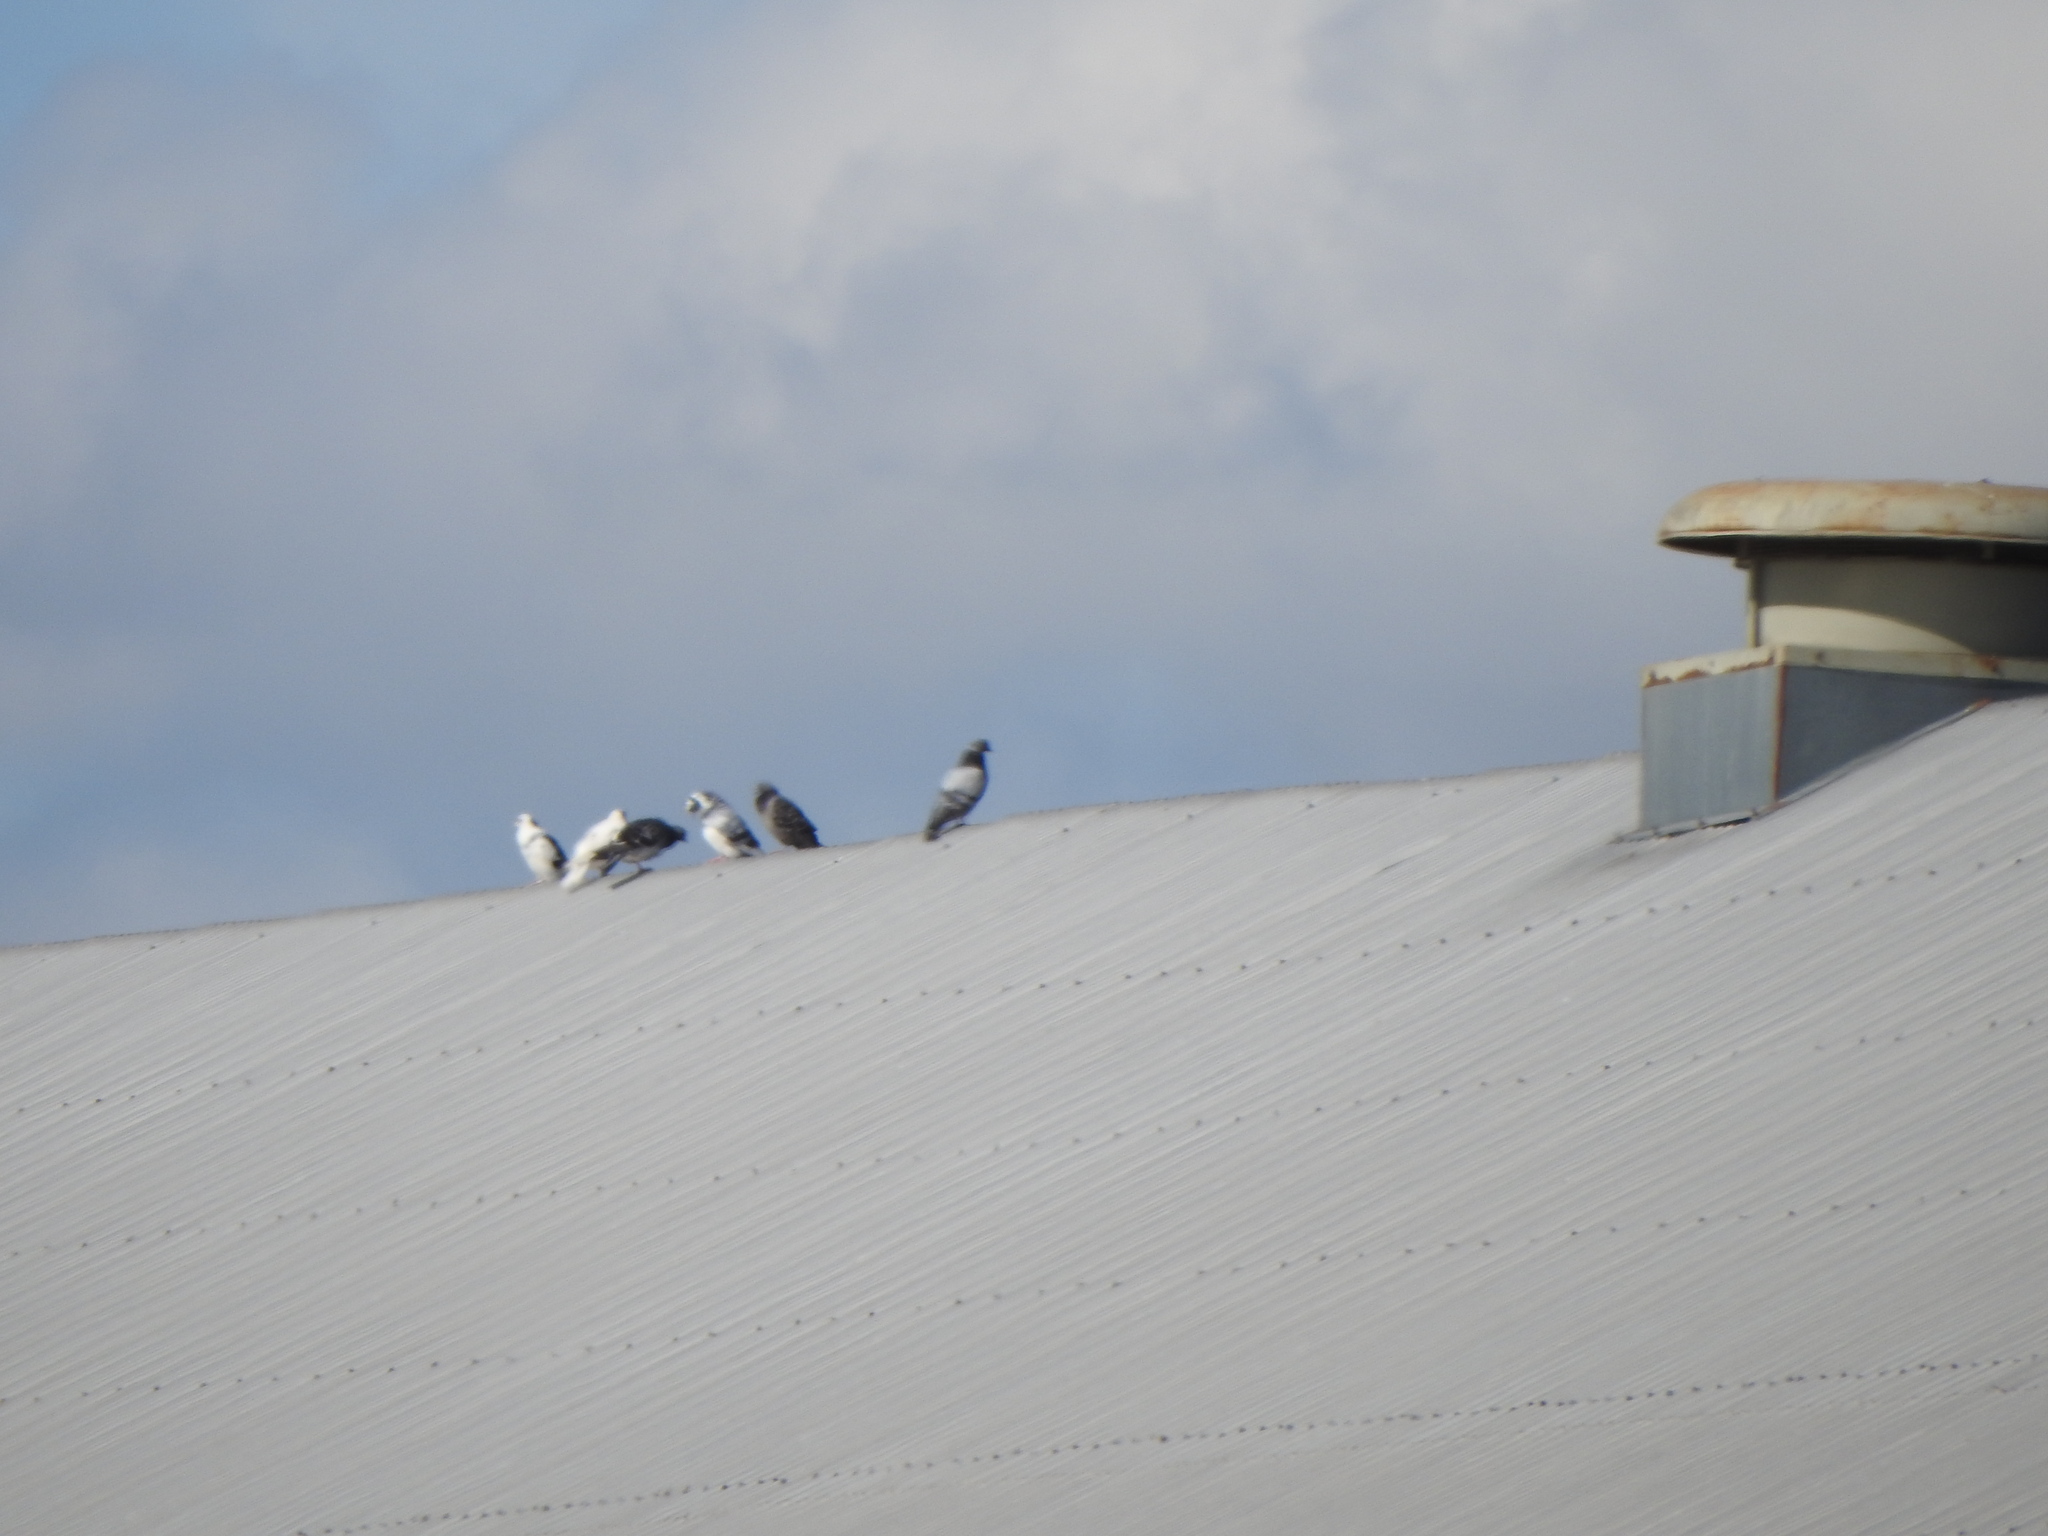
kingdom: Animalia
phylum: Chordata
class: Aves
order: Columbiformes
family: Columbidae
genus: Columba
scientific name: Columba livia
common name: Rock pigeon
